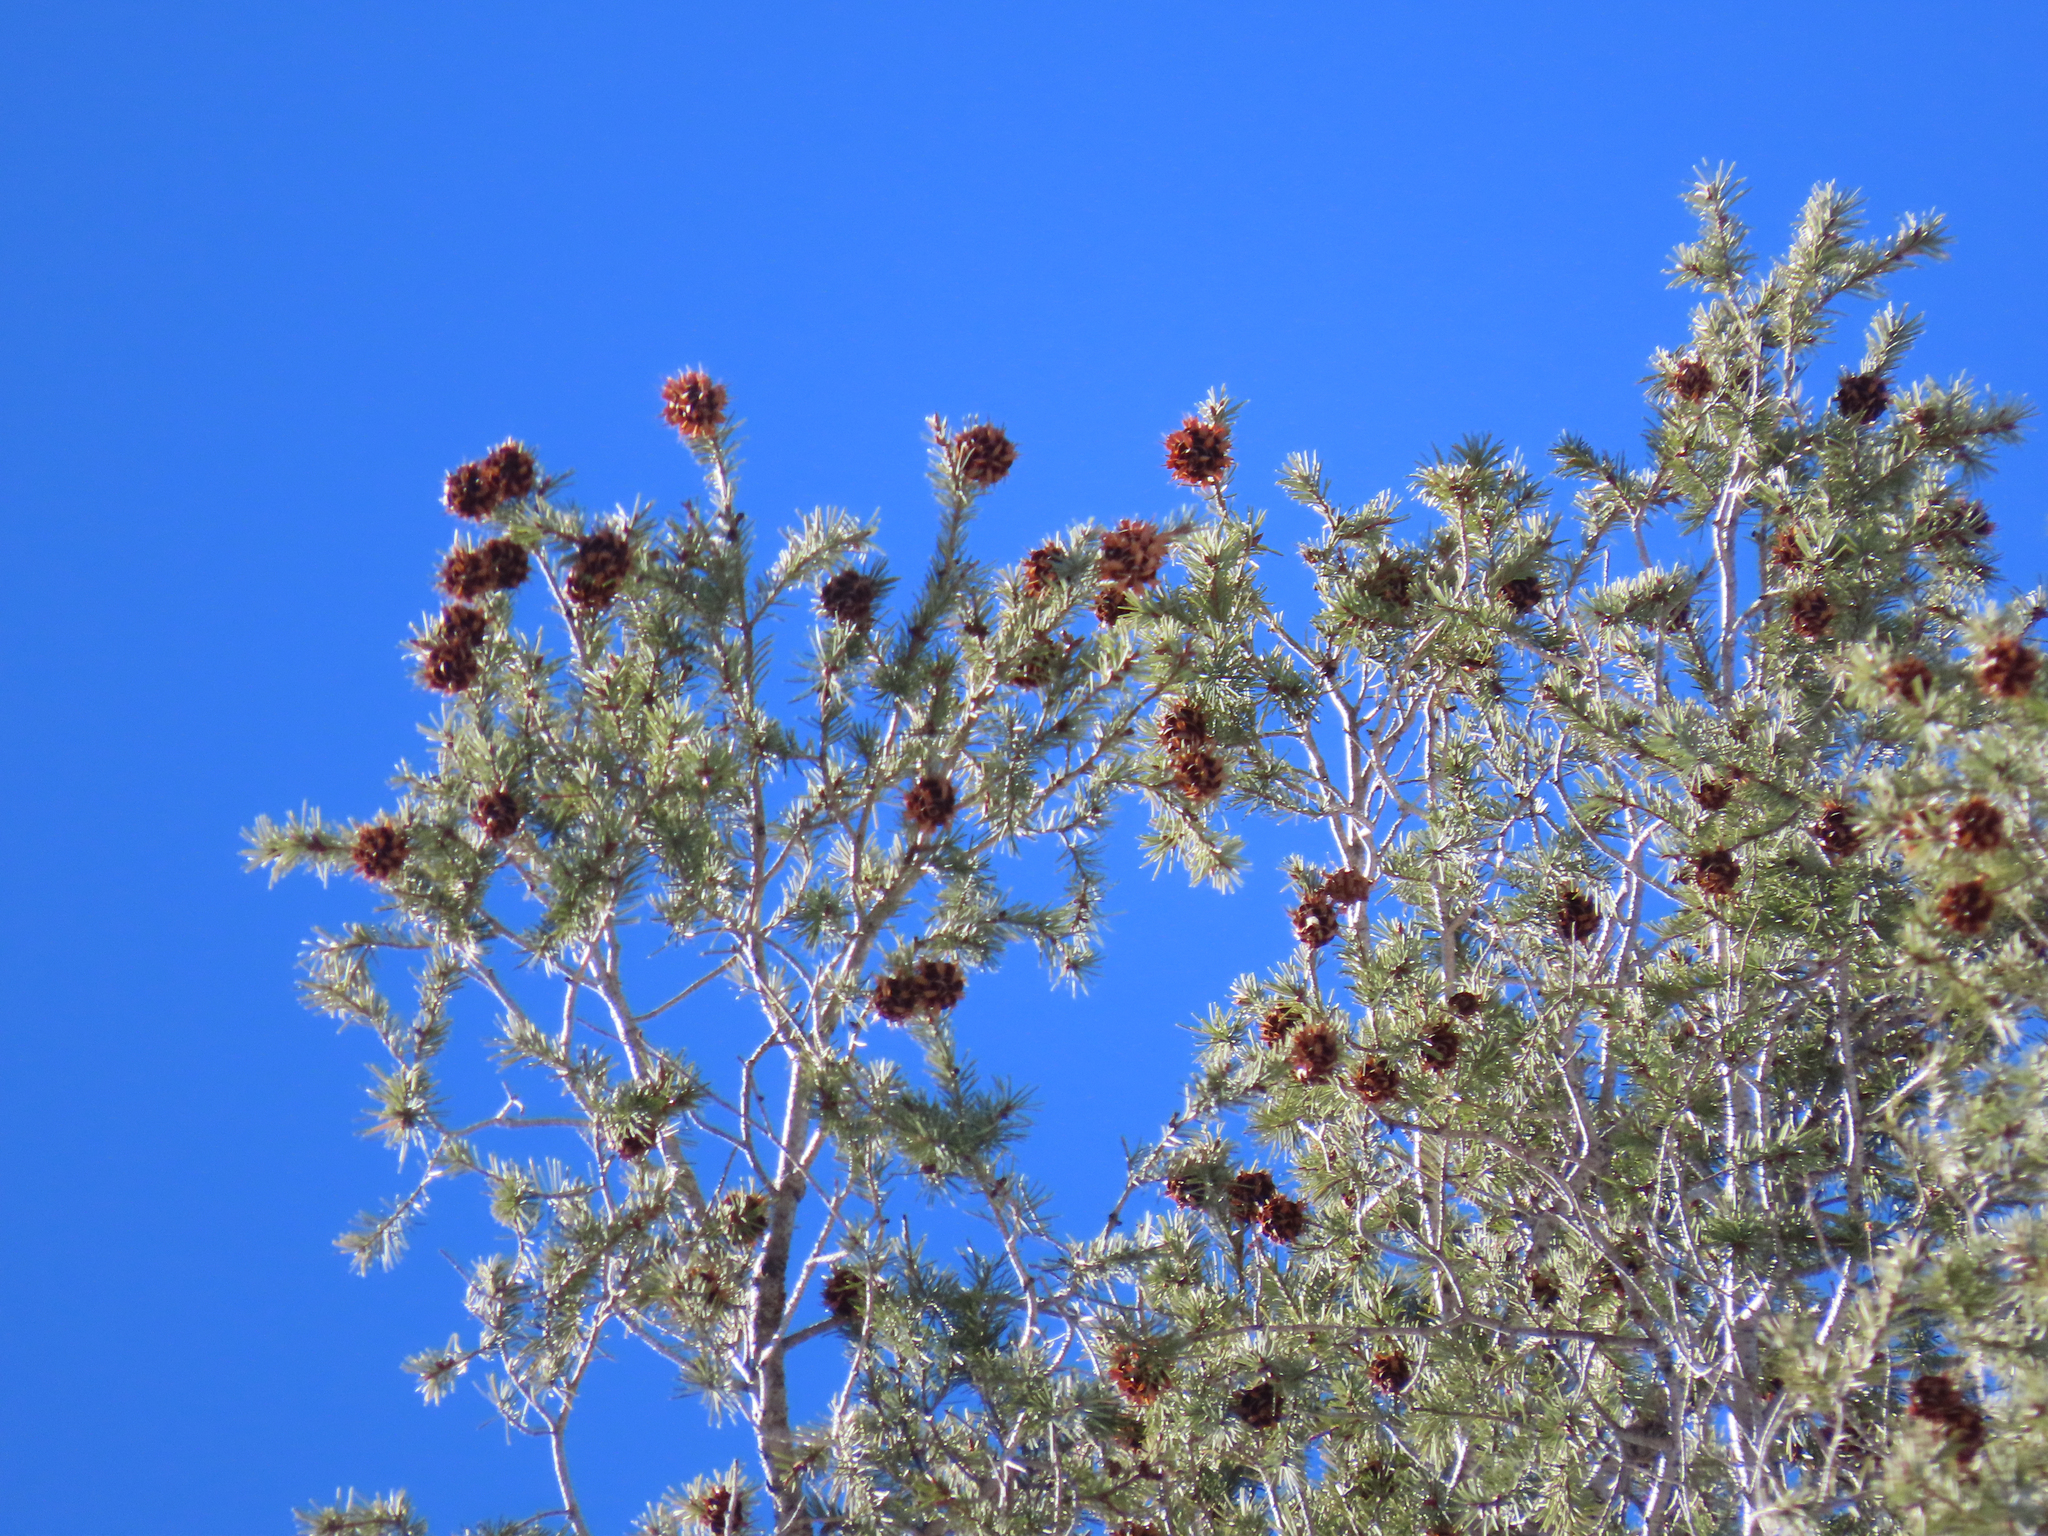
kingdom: Plantae
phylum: Tracheophyta
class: Pinopsida
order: Pinales
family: Pinaceae
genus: Pseudotsuga
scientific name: Pseudotsuga menziesii
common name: Douglas fir
